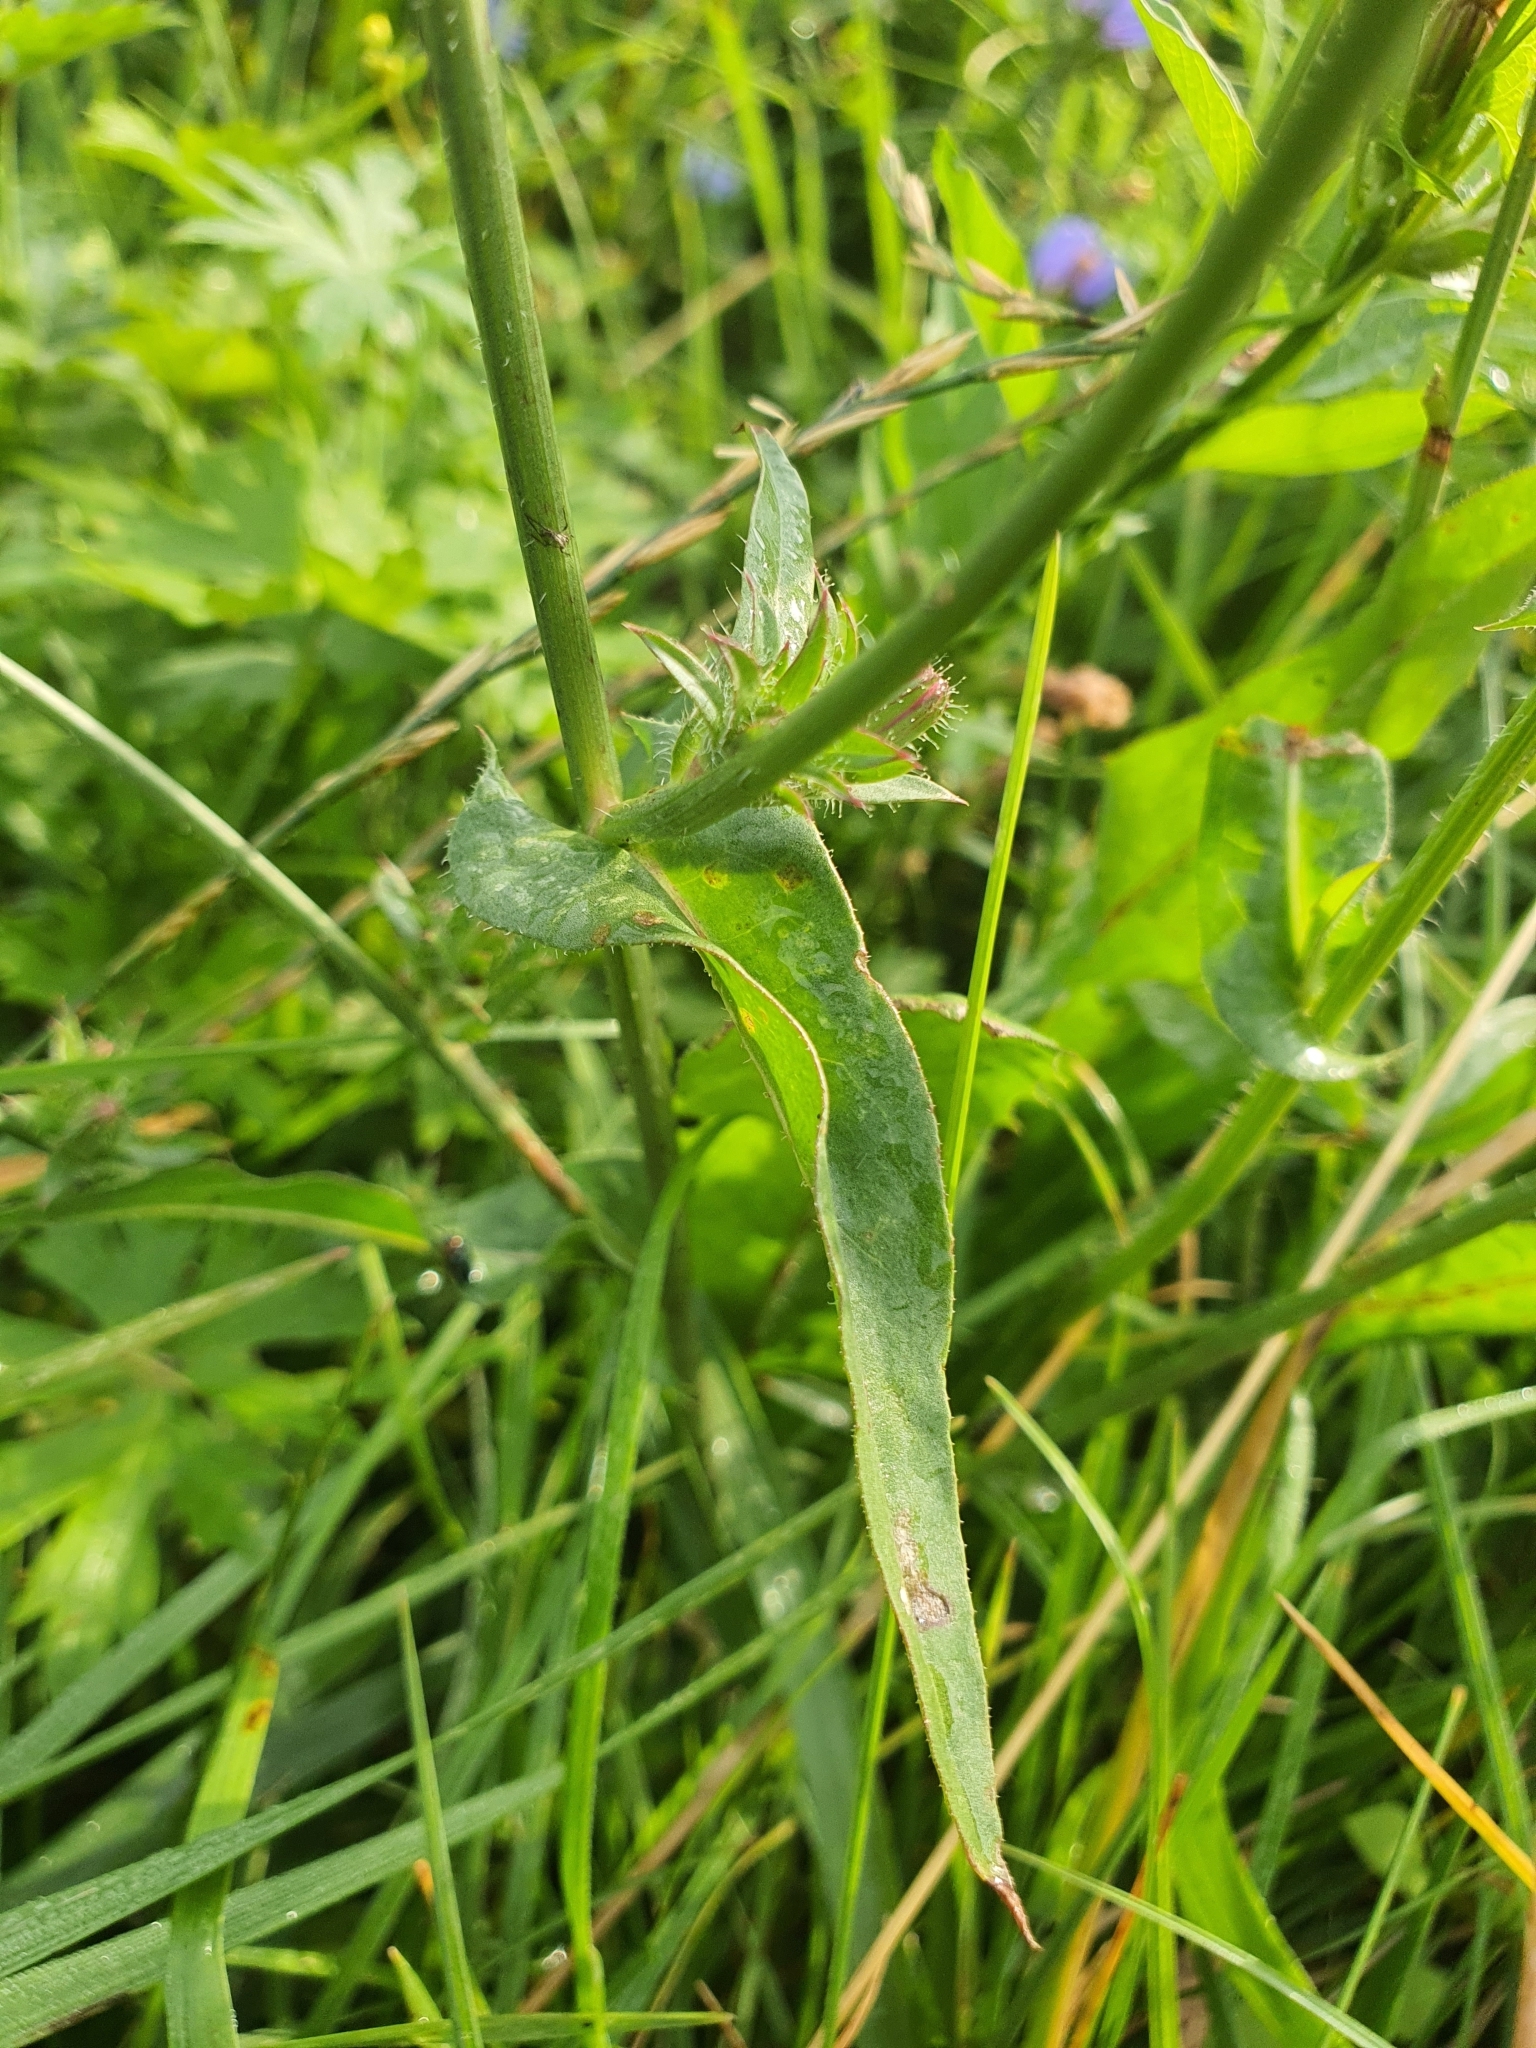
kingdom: Plantae
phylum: Tracheophyta
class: Magnoliopsida
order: Asterales
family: Asteraceae
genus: Cichorium
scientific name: Cichorium intybus
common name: Chicory
